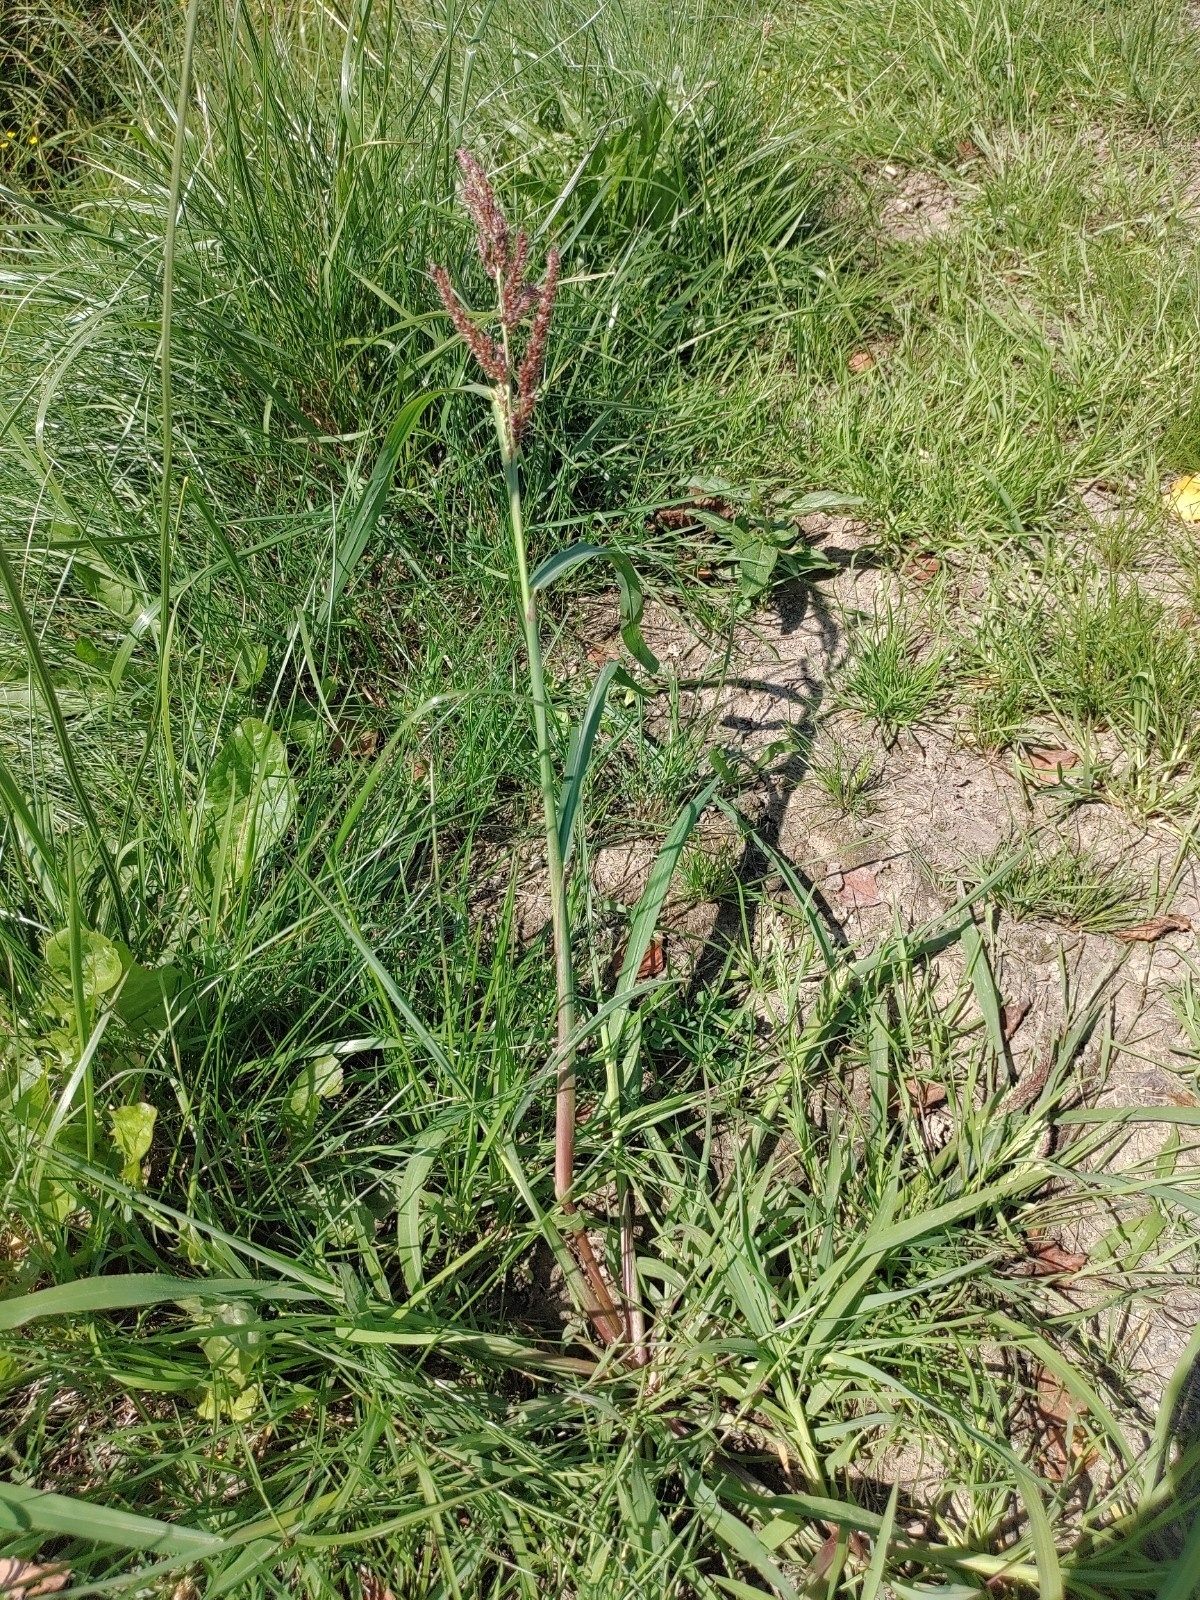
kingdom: Plantae
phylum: Tracheophyta
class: Liliopsida
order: Poales
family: Poaceae
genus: Echinochloa
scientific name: Echinochloa crus-galli
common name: Cockspur
